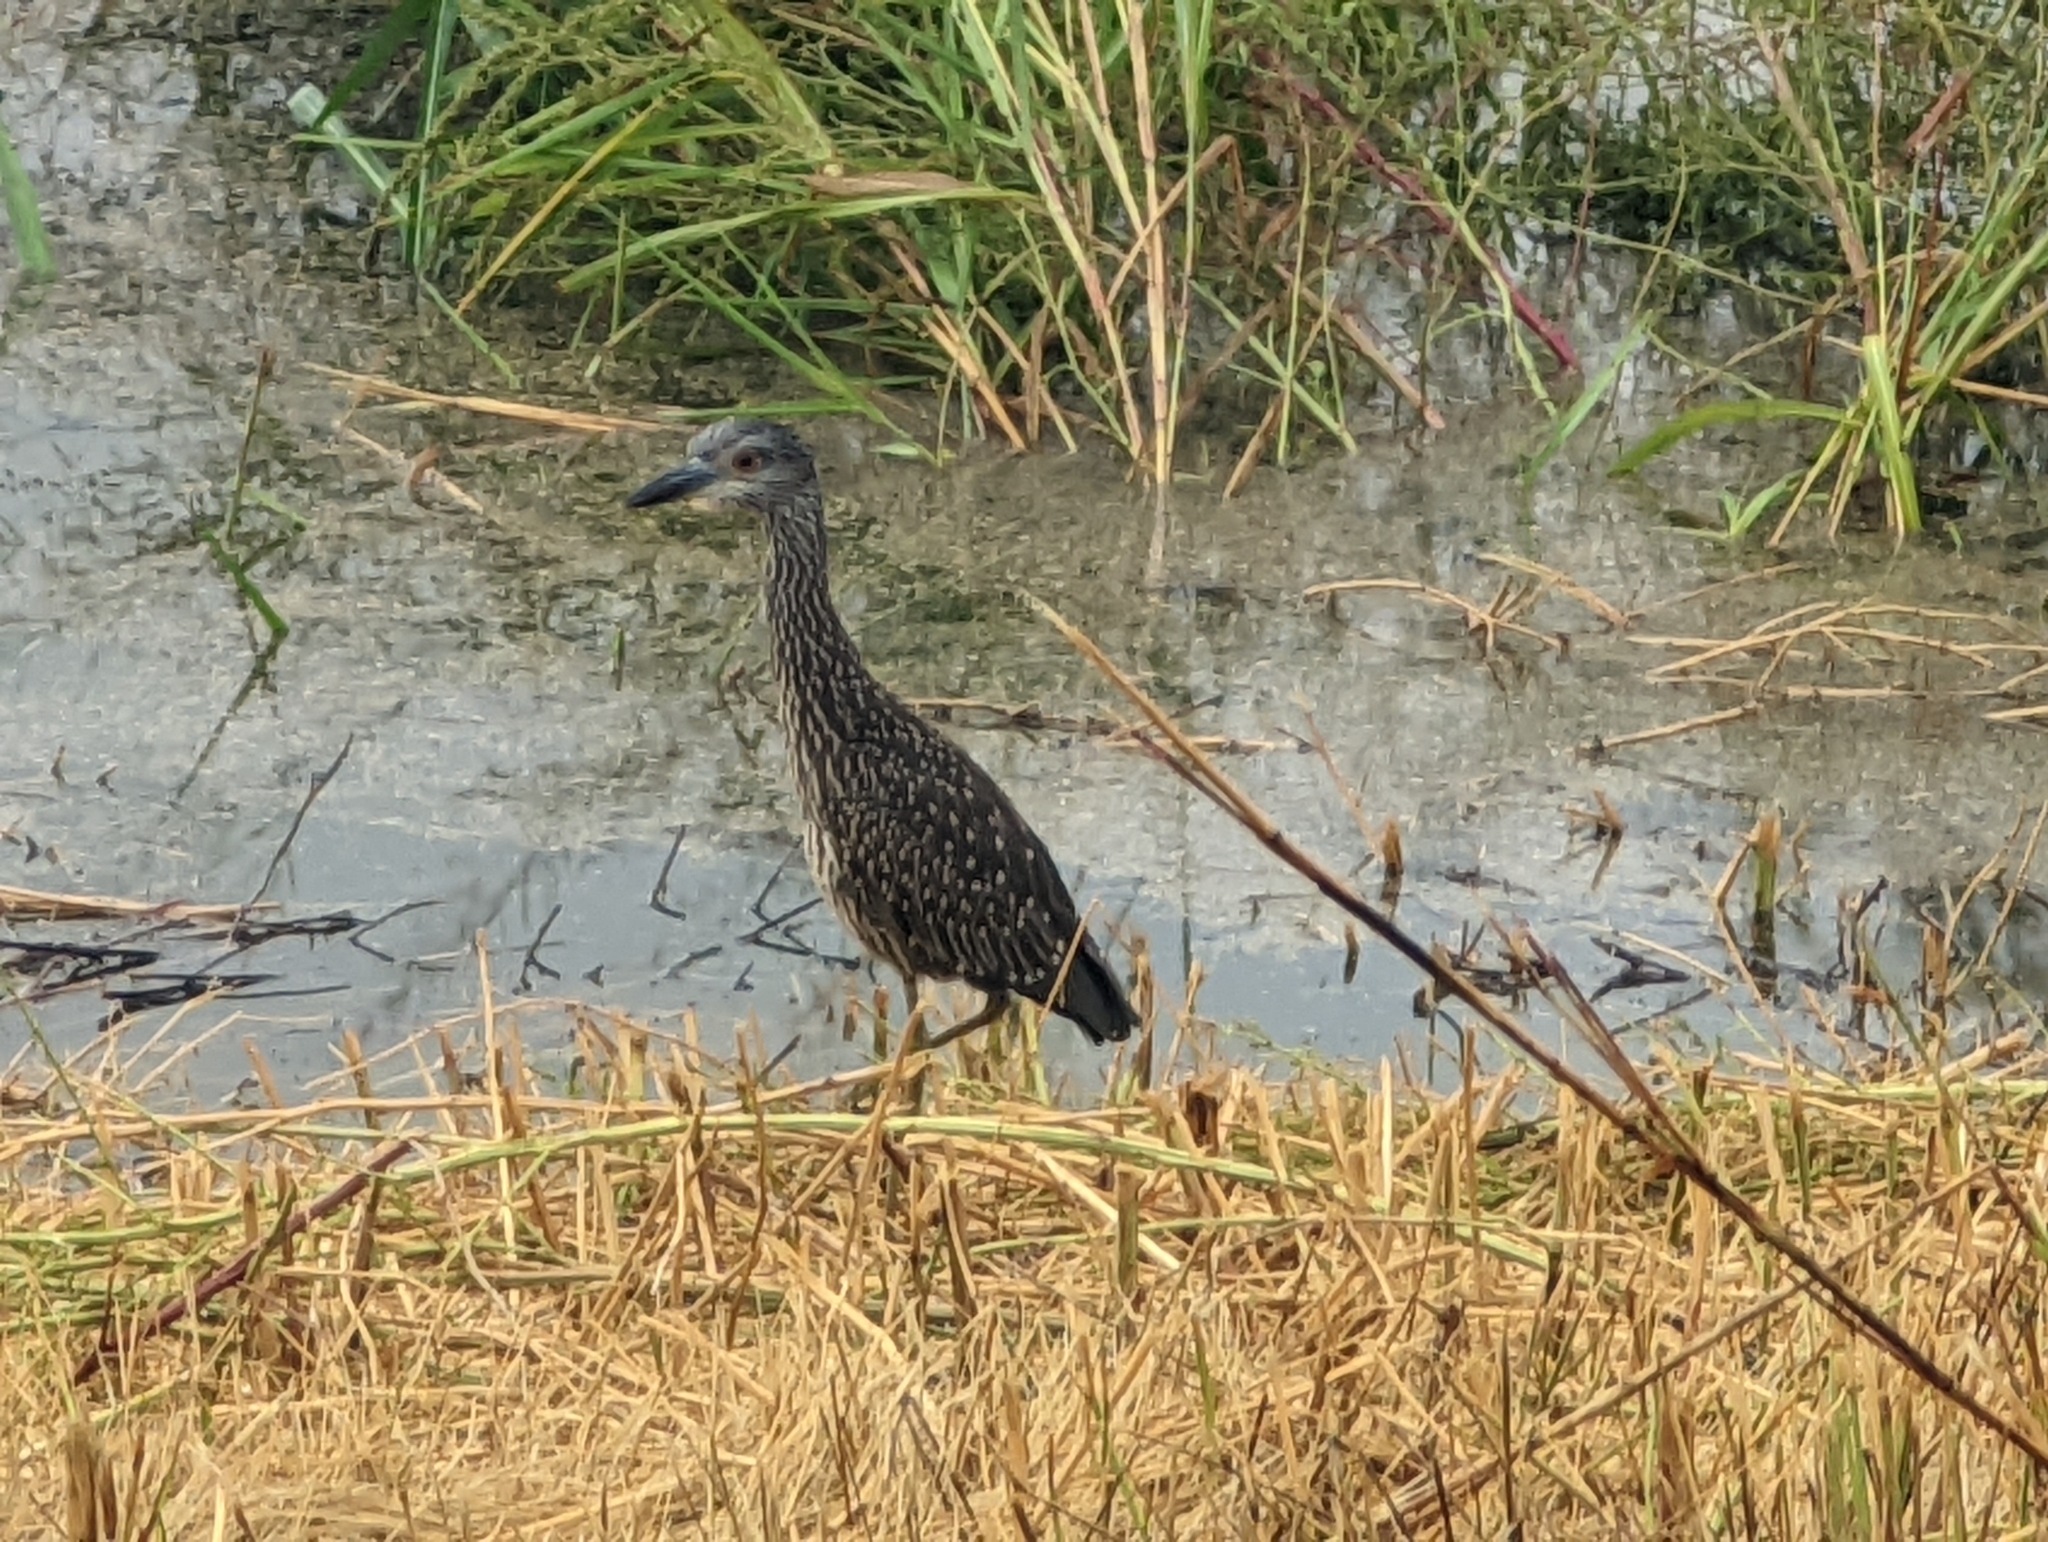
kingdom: Animalia
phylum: Chordata
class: Aves
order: Pelecaniformes
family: Ardeidae
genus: Nyctanassa
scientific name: Nyctanassa violacea
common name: Yellow-crowned night heron
